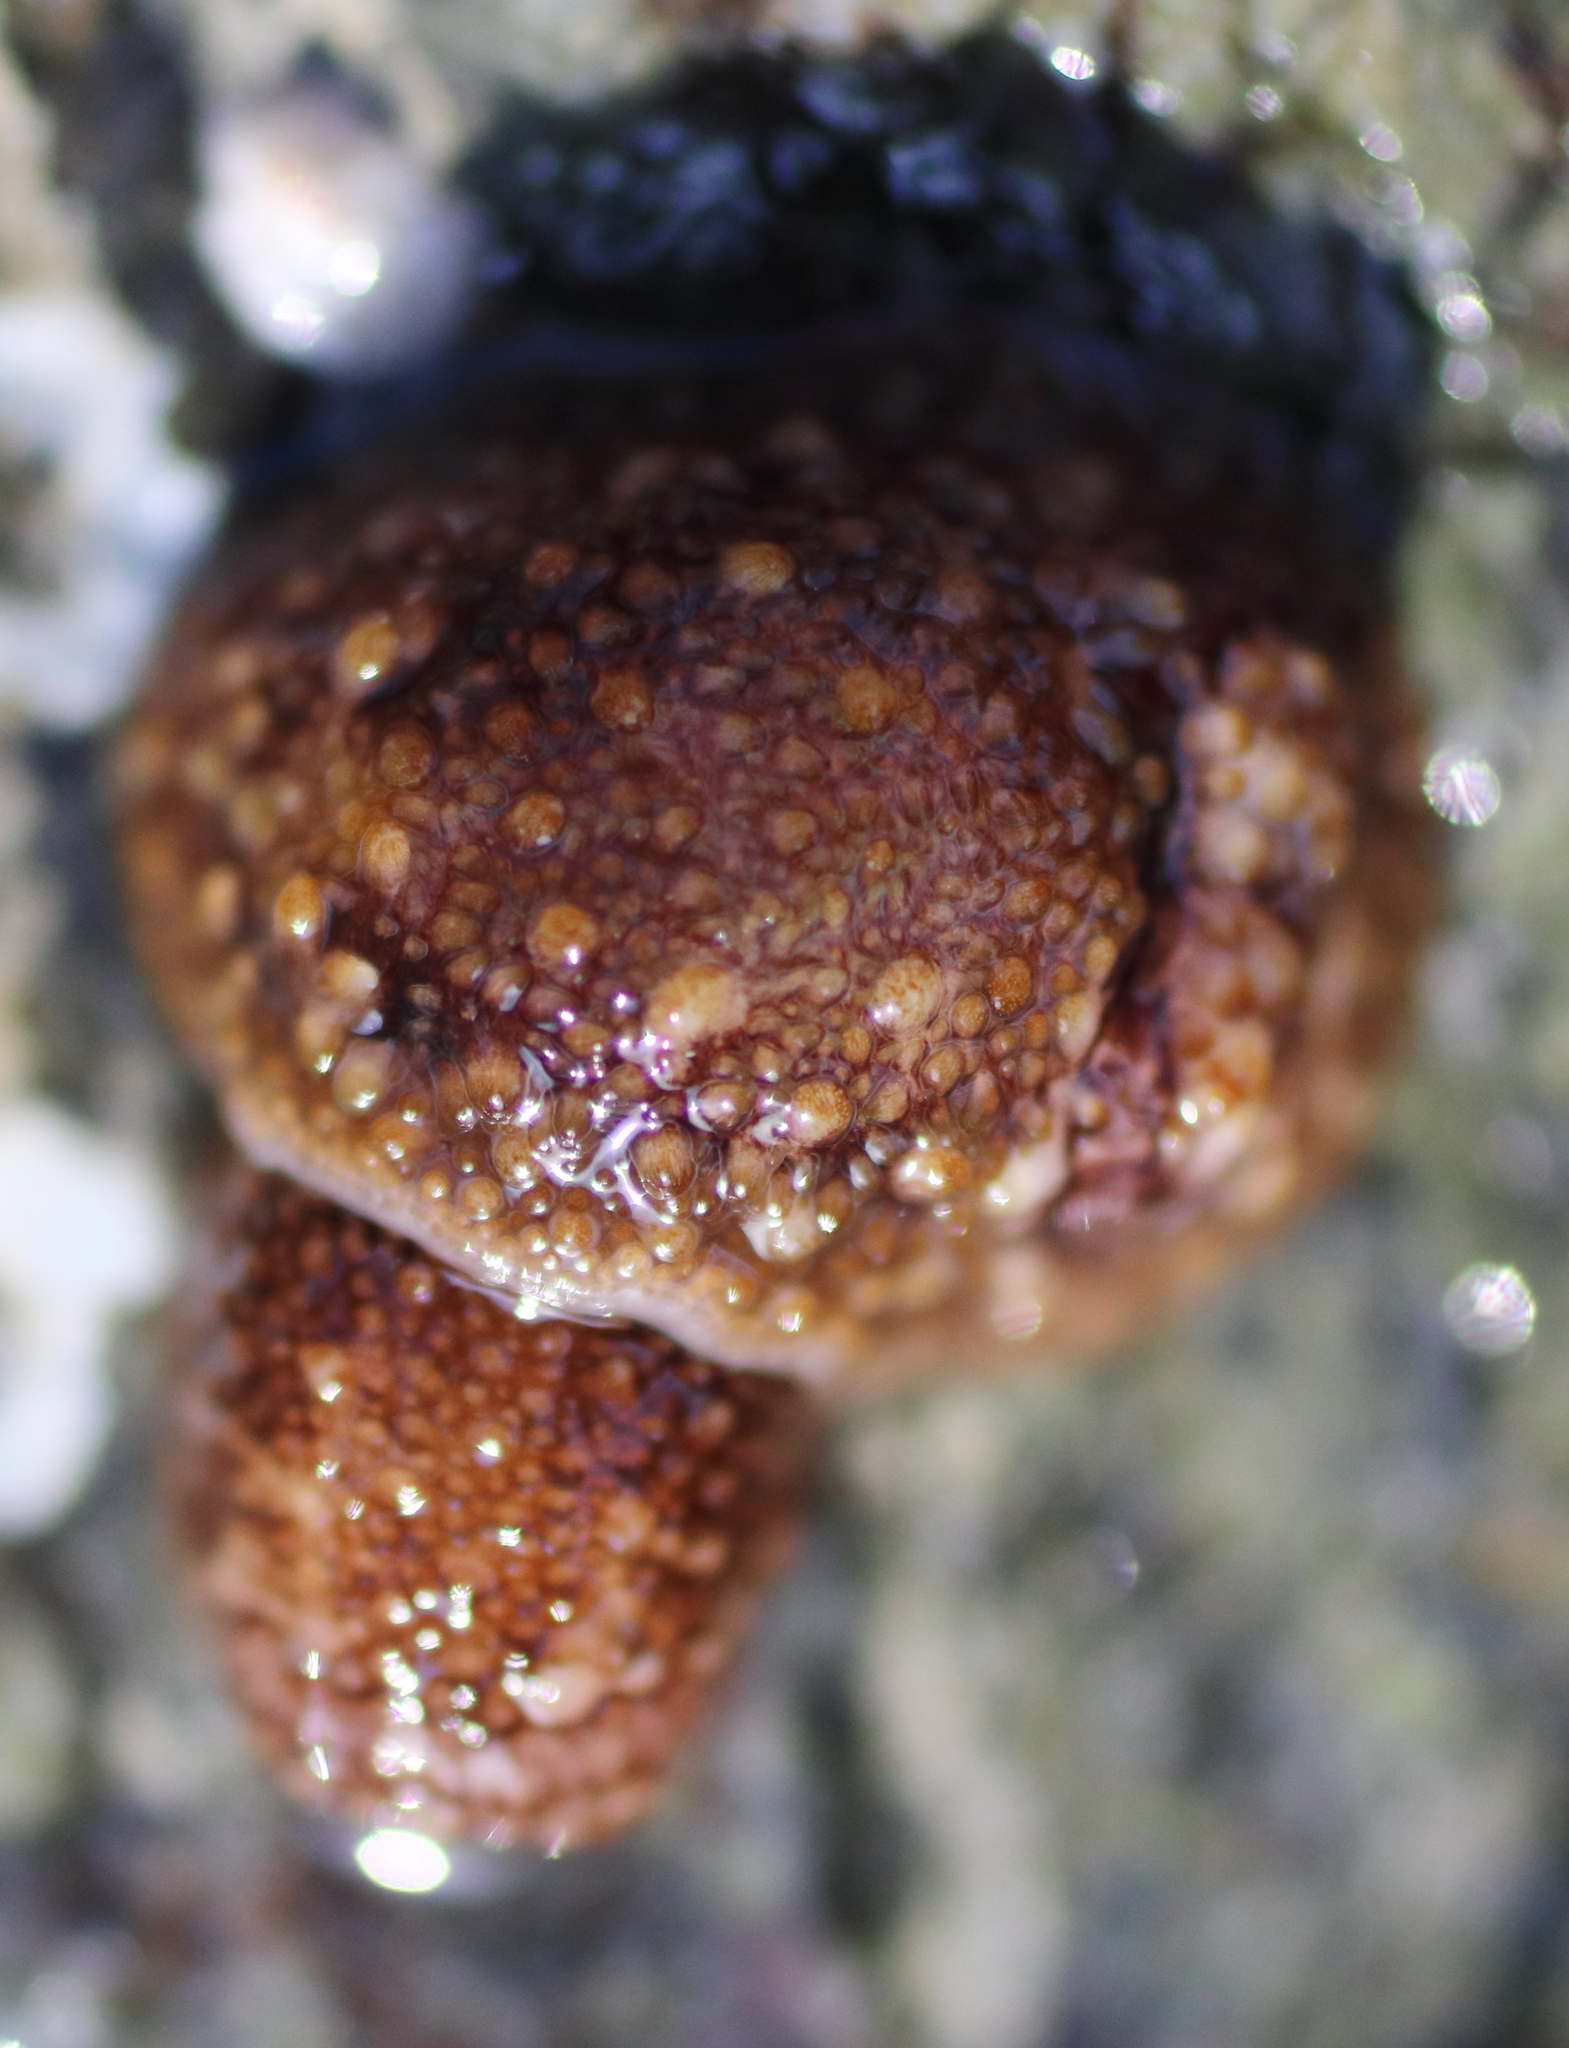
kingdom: Animalia
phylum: Mollusca
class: Gastropoda
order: Nudibranchia
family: Onchidorididae
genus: Onchidoris
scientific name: Onchidoris bilamellata
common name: Barnacle-eating onchidoris
